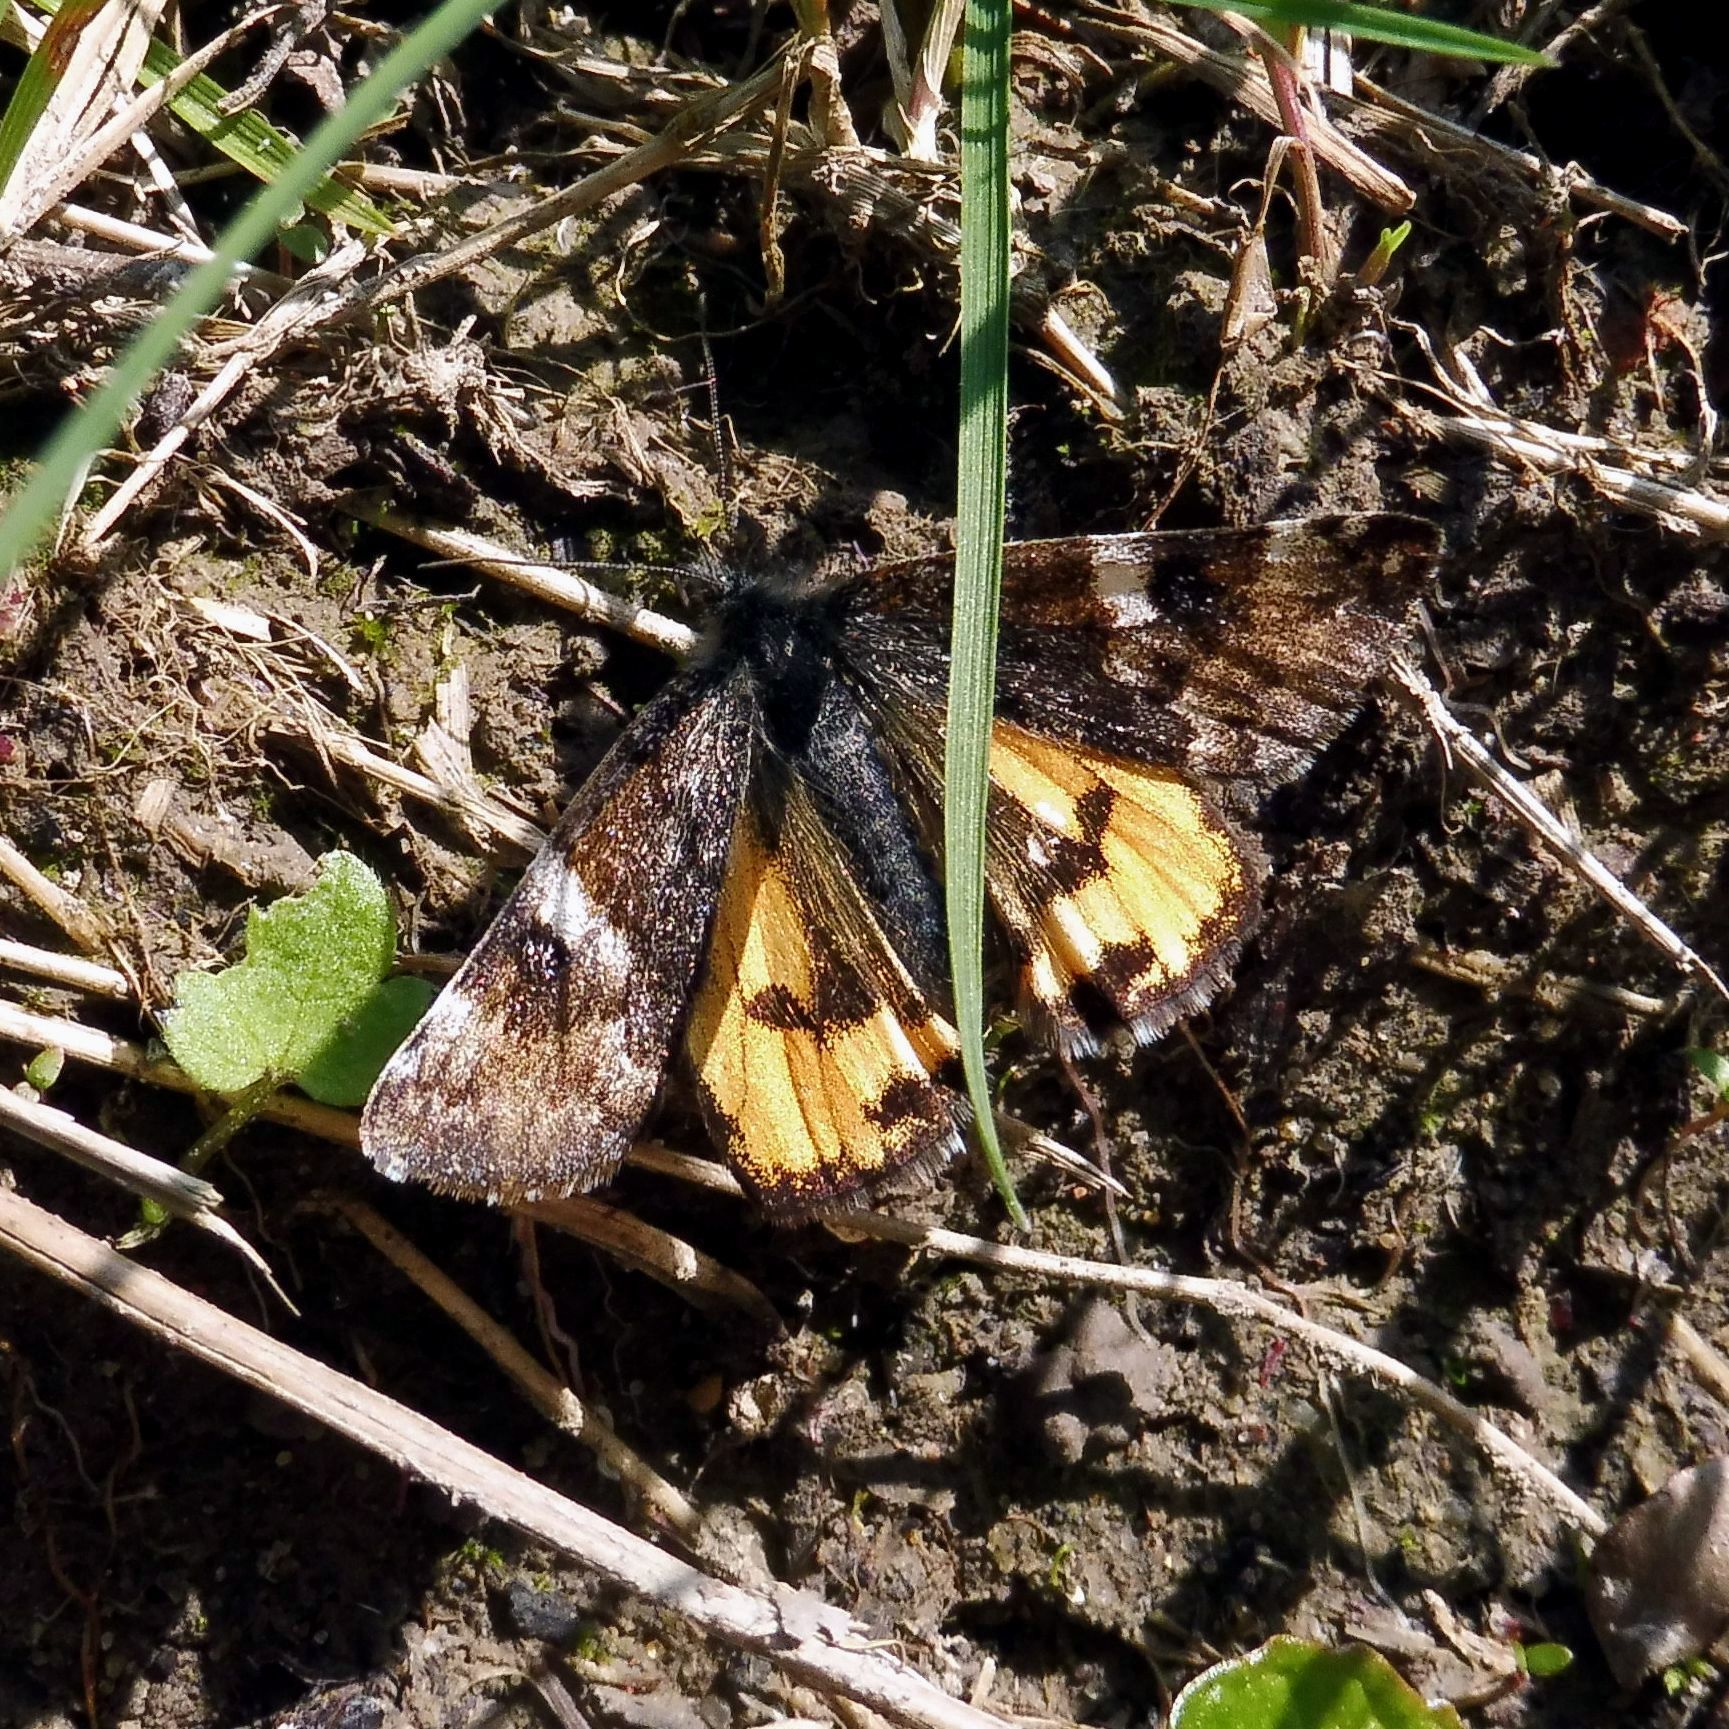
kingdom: Animalia
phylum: Arthropoda
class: Insecta
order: Lepidoptera
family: Geometridae
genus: Archiearis
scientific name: Archiearis parthenias
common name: Orange underwing
